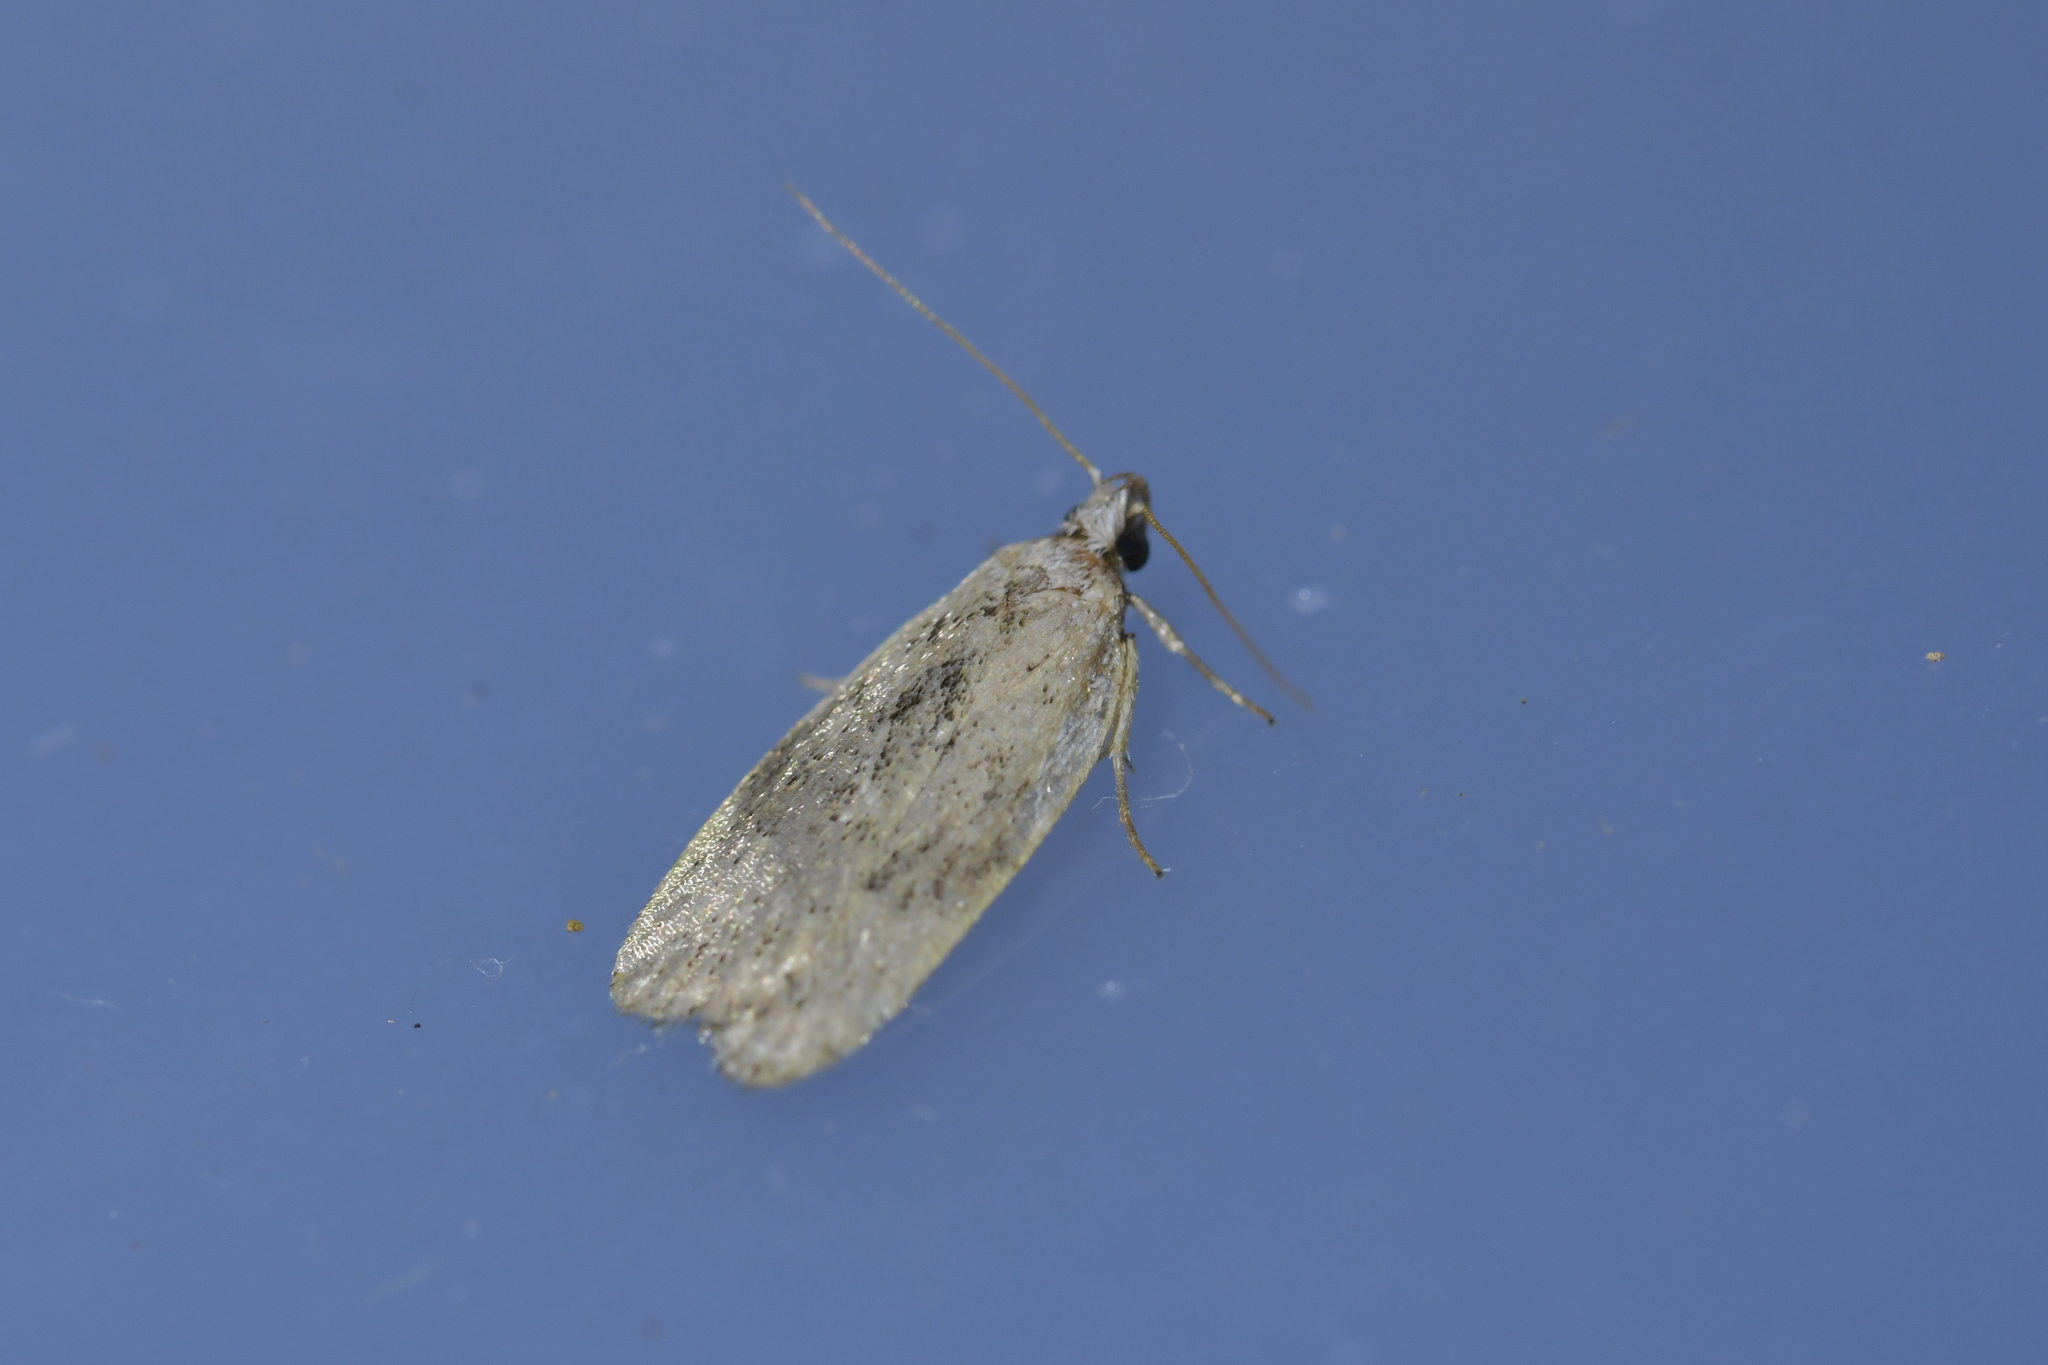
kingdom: Animalia
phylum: Arthropoda
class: Insecta
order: Lepidoptera
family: Depressariidae
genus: Phaeosaces
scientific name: Phaeosaces compsotypa
